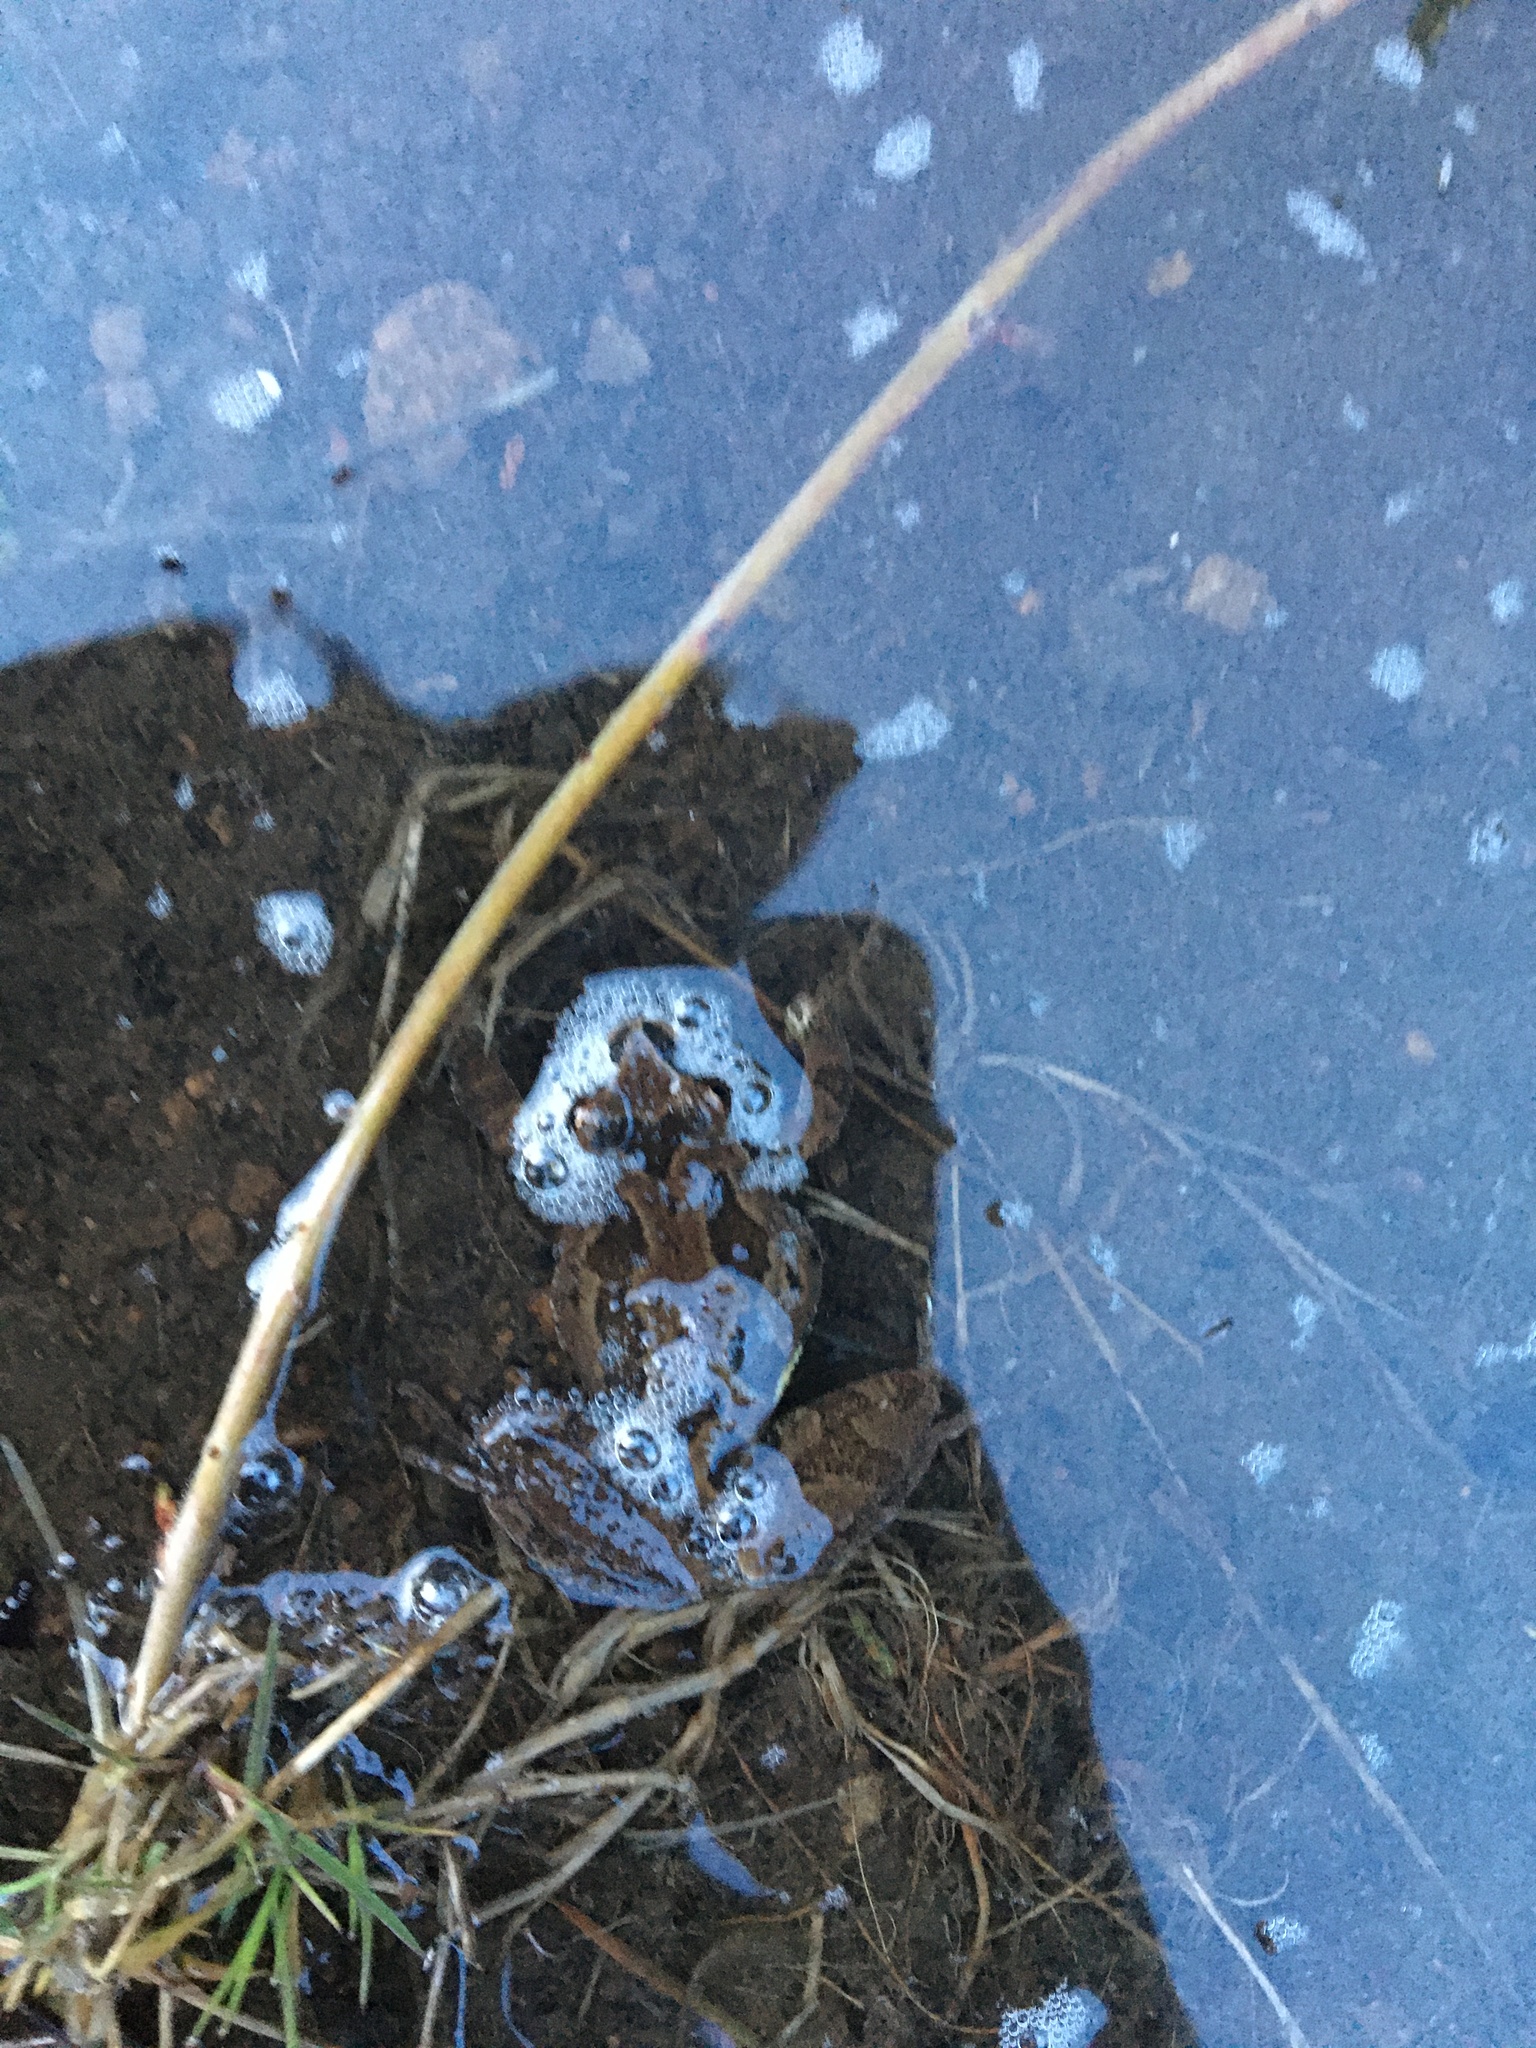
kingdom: Animalia
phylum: Chordata
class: Amphibia
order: Anura
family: Hylidae
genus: Pseudacris
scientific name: Pseudacris regilla
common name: Pacific chorus frog
